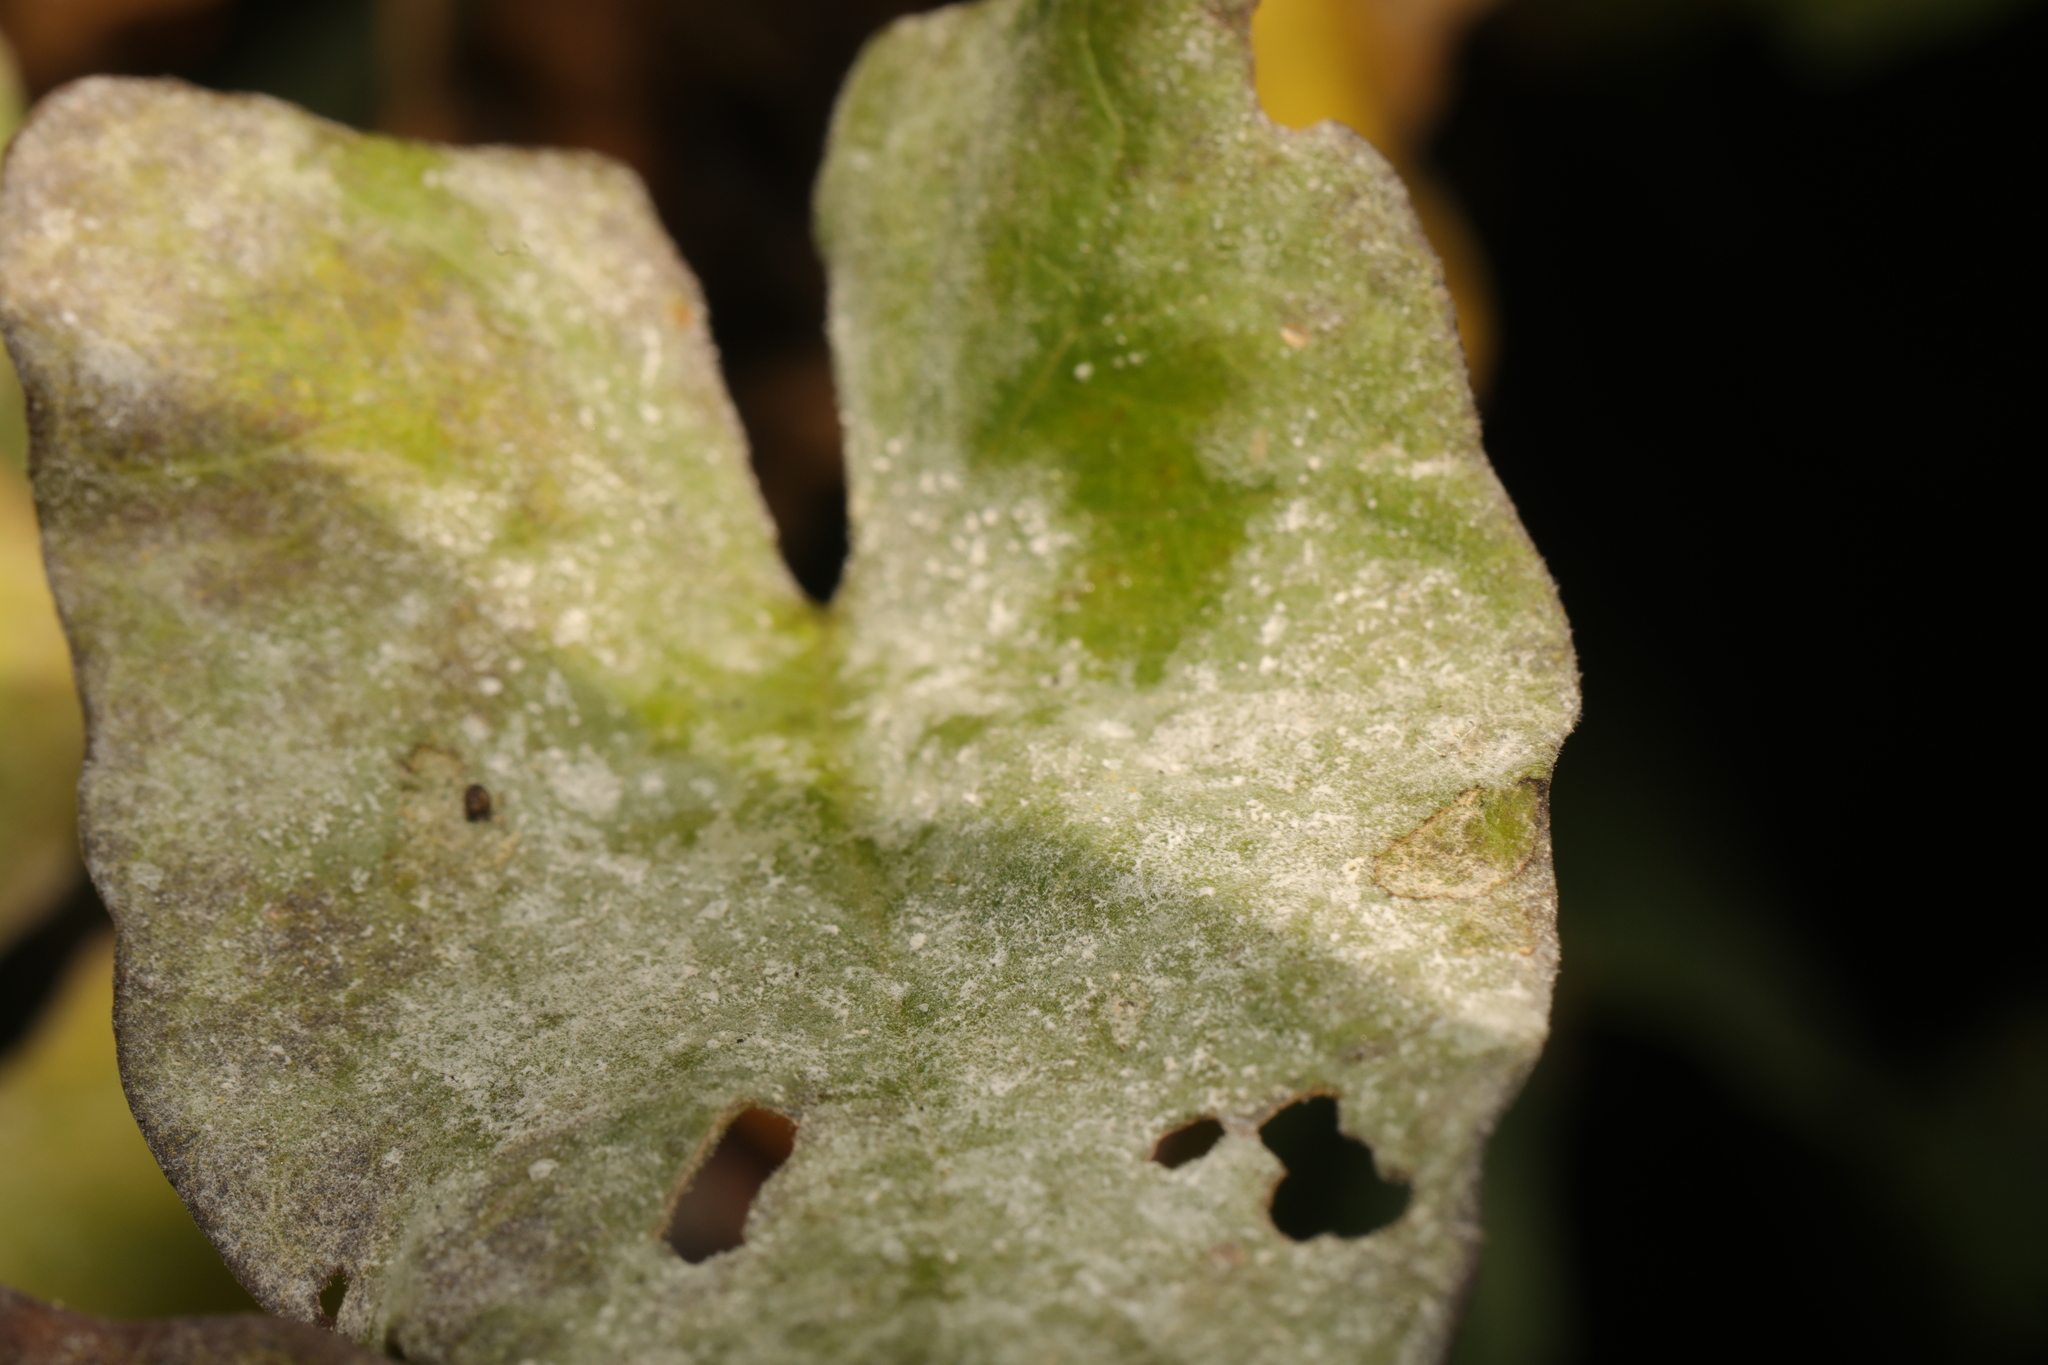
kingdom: Fungi
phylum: Ascomycota
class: Leotiomycetes
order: Helotiales
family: Erysiphaceae
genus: Erysiphe
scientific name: Erysiphe convolvuli
